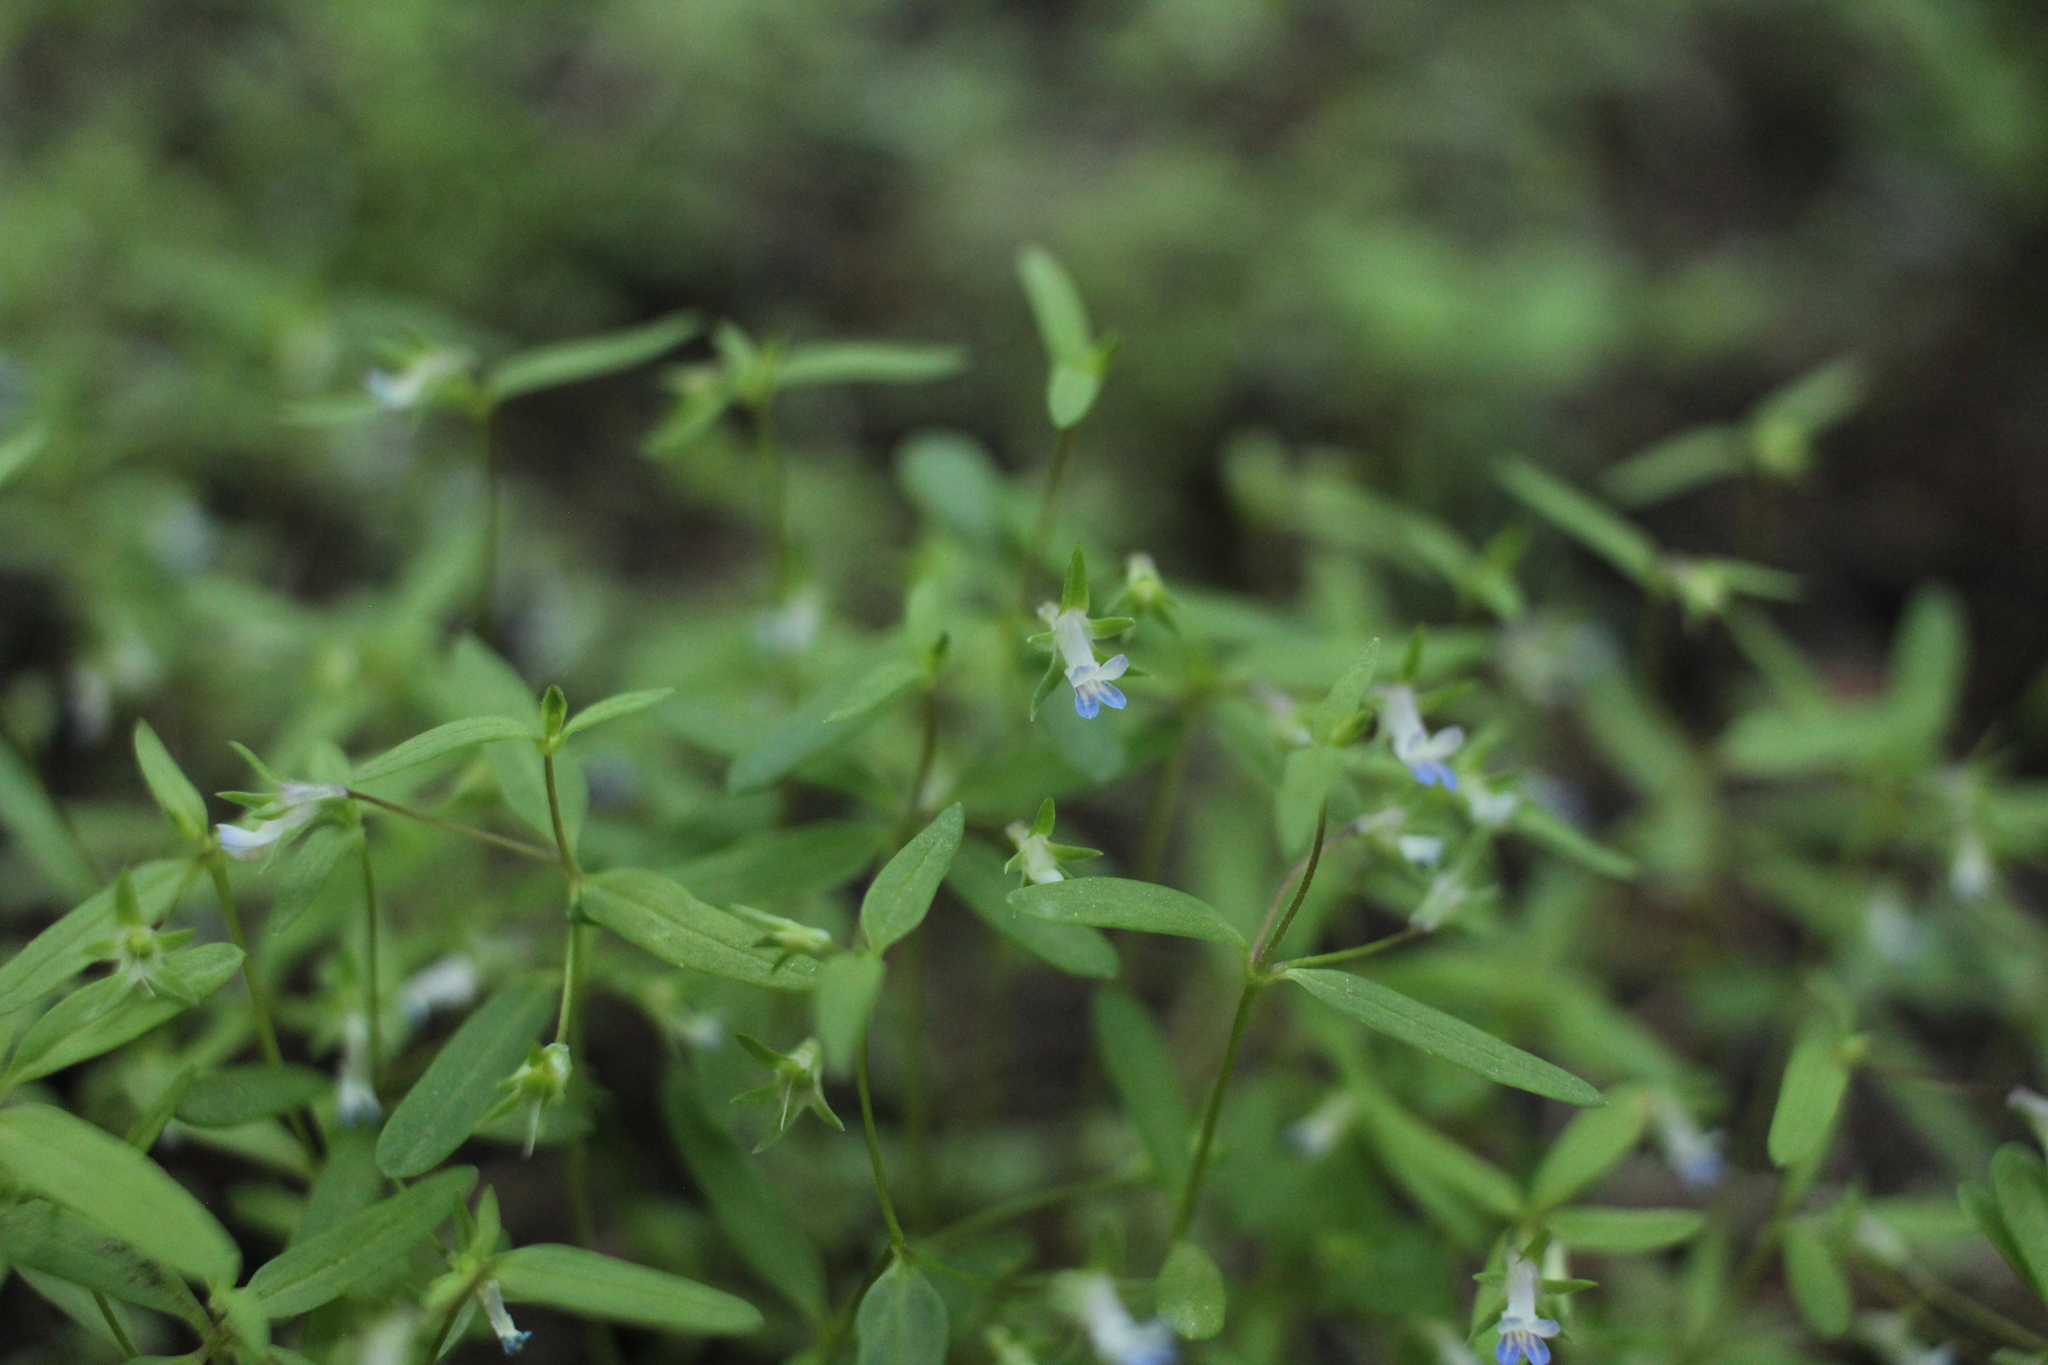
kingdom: Plantae
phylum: Tracheophyta
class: Magnoliopsida
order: Lamiales
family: Plantaginaceae
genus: Collinsia
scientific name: Collinsia parviflora
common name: Blue-lips
